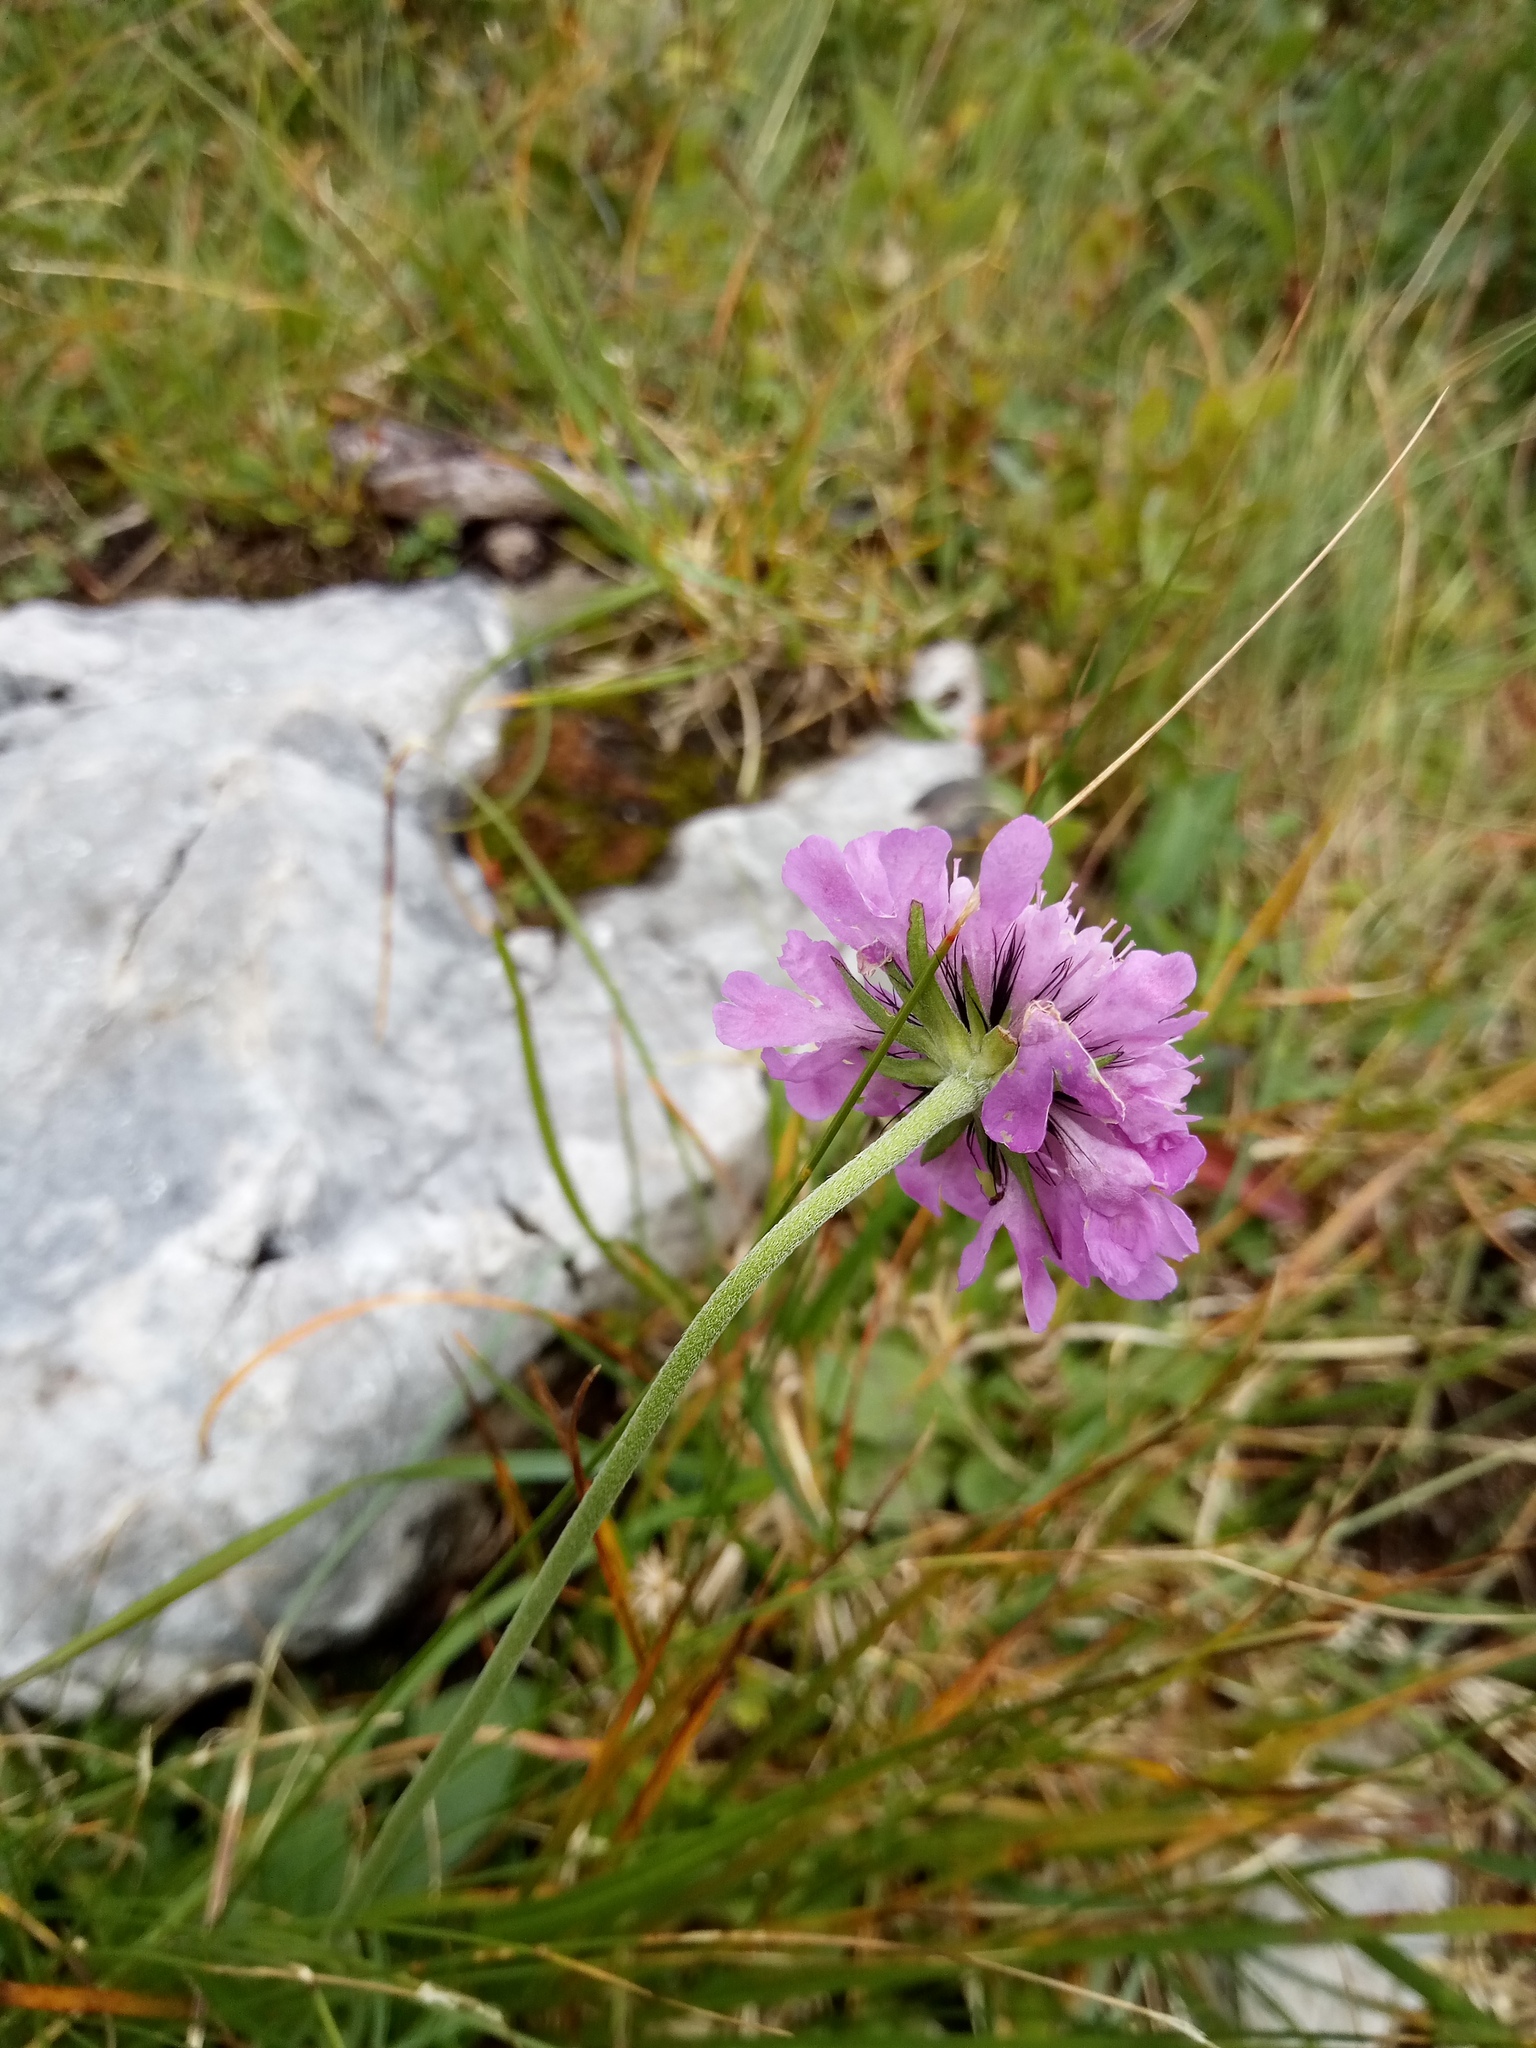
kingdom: Plantae
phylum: Tracheophyta
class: Magnoliopsida
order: Dipsacales
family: Caprifoliaceae
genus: Scabiosa
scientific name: Scabiosa lucida
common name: Shining scabious
